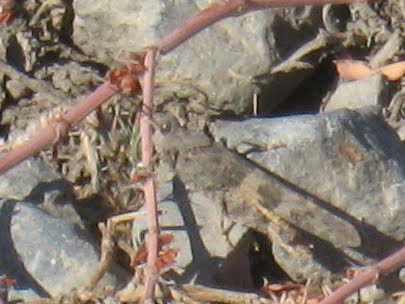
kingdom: Animalia
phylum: Arthropoda
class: Insecta
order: Orthoptera
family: Acrididae
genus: Trimerotropis
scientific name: Trimerotropis pallidipennis
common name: Pallid-winged grasshopper
